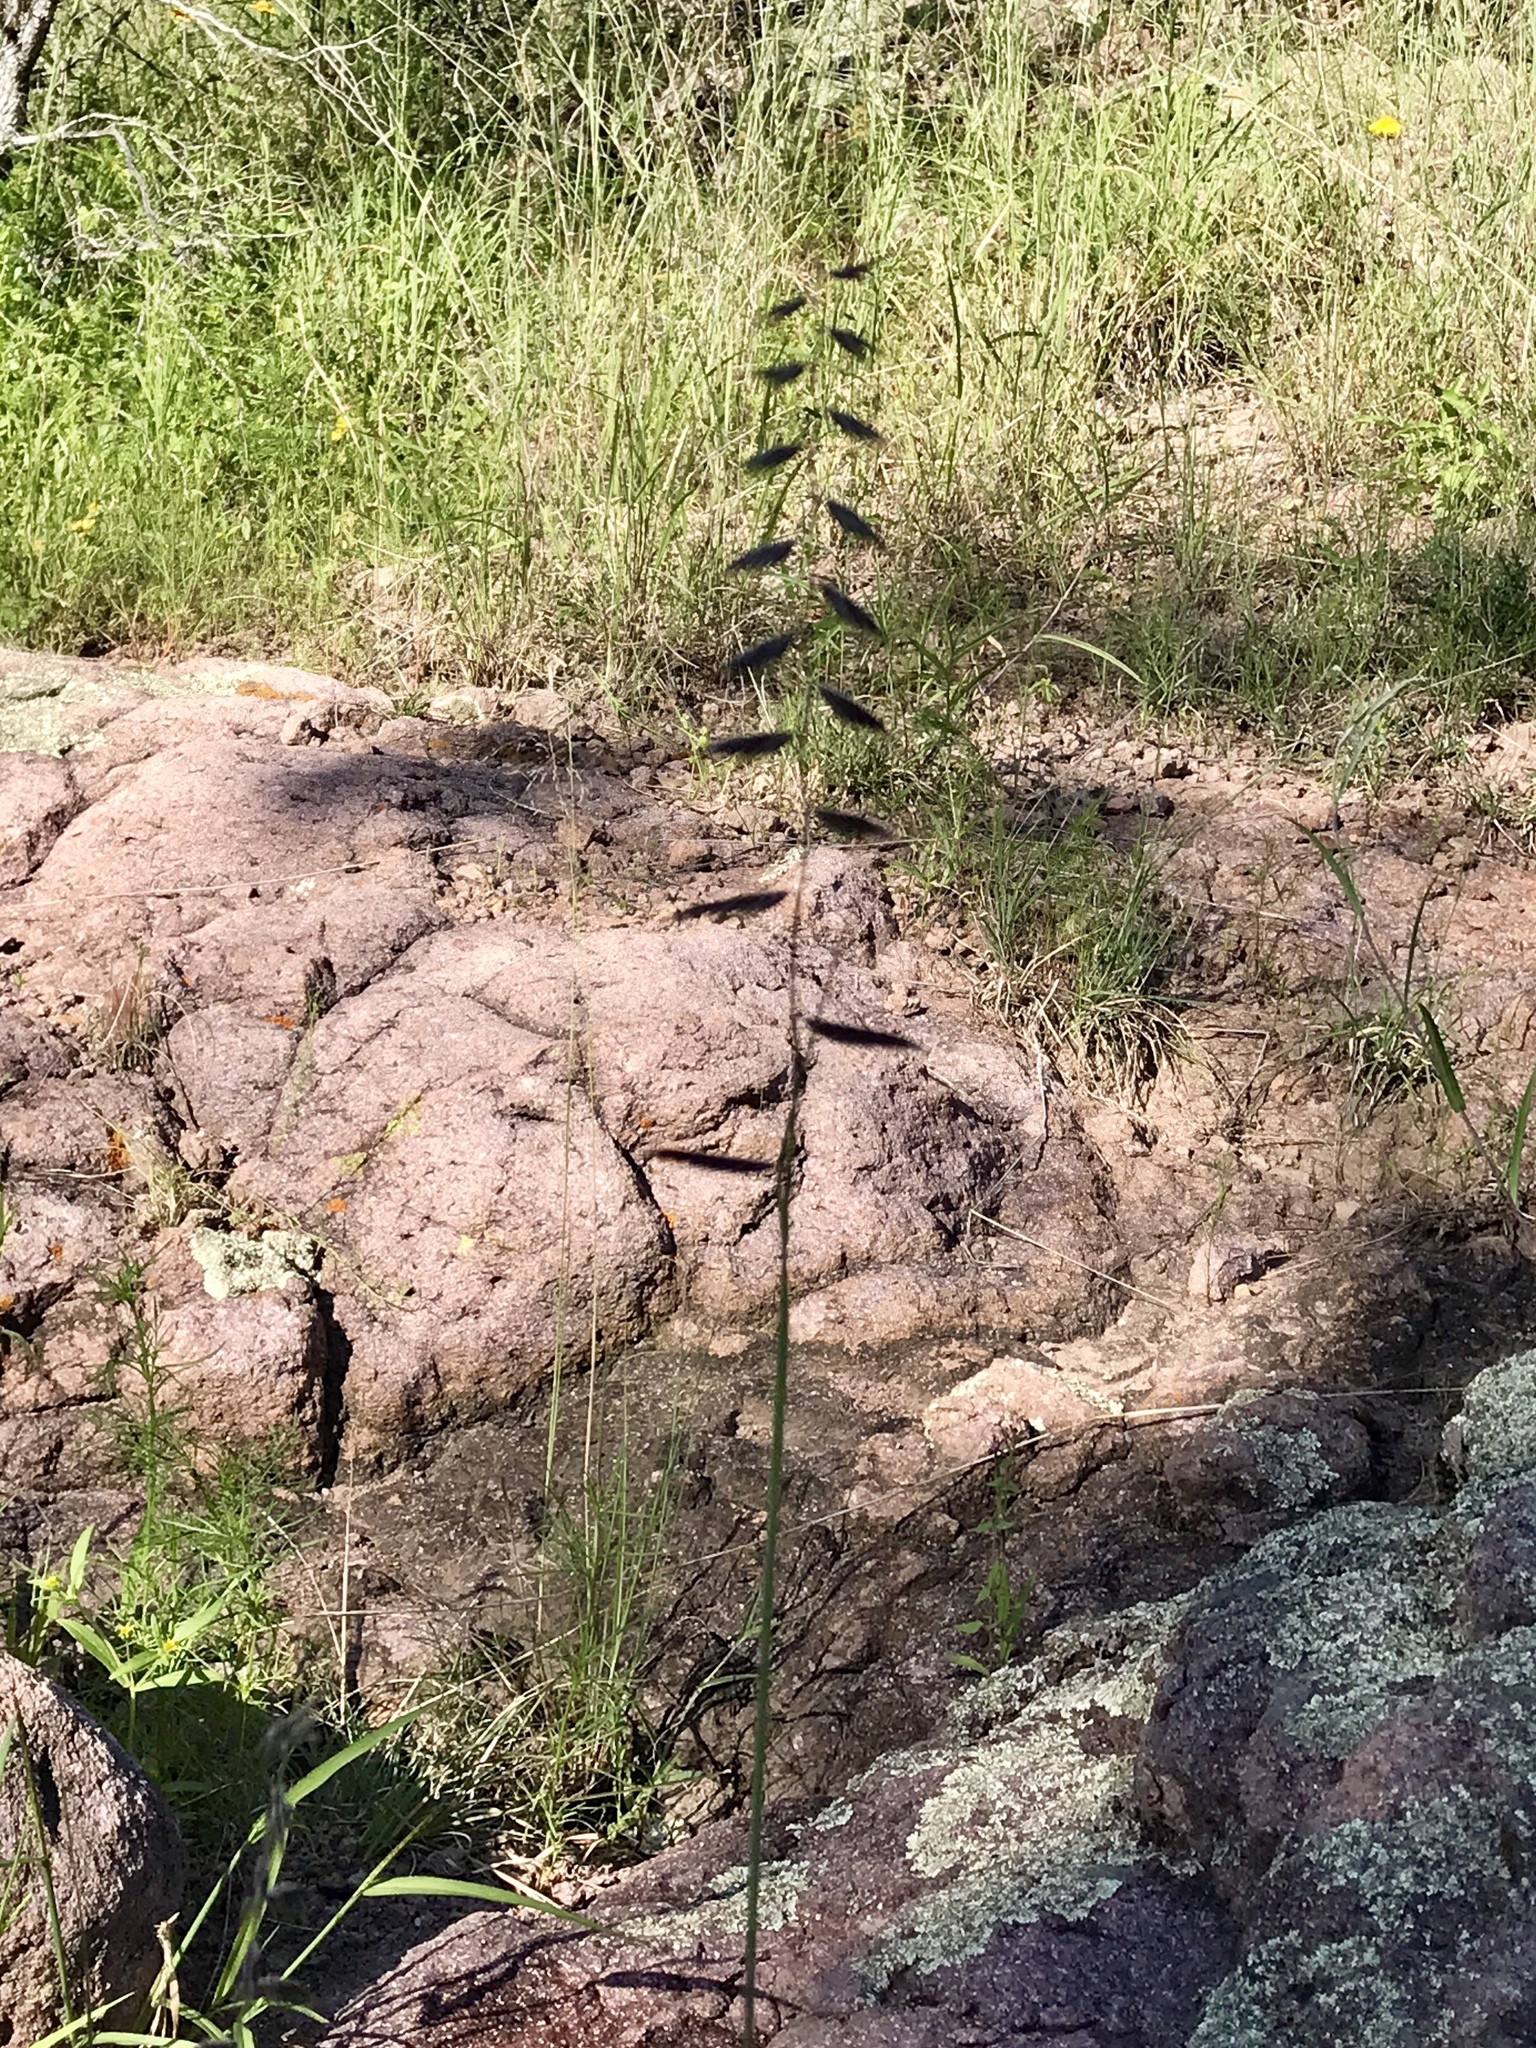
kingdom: Plantae
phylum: Tracheophyta
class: Liliopsida
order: Poales
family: Poaceae
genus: Bouteloua
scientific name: Bouteloua radicosa
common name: Purple grama
